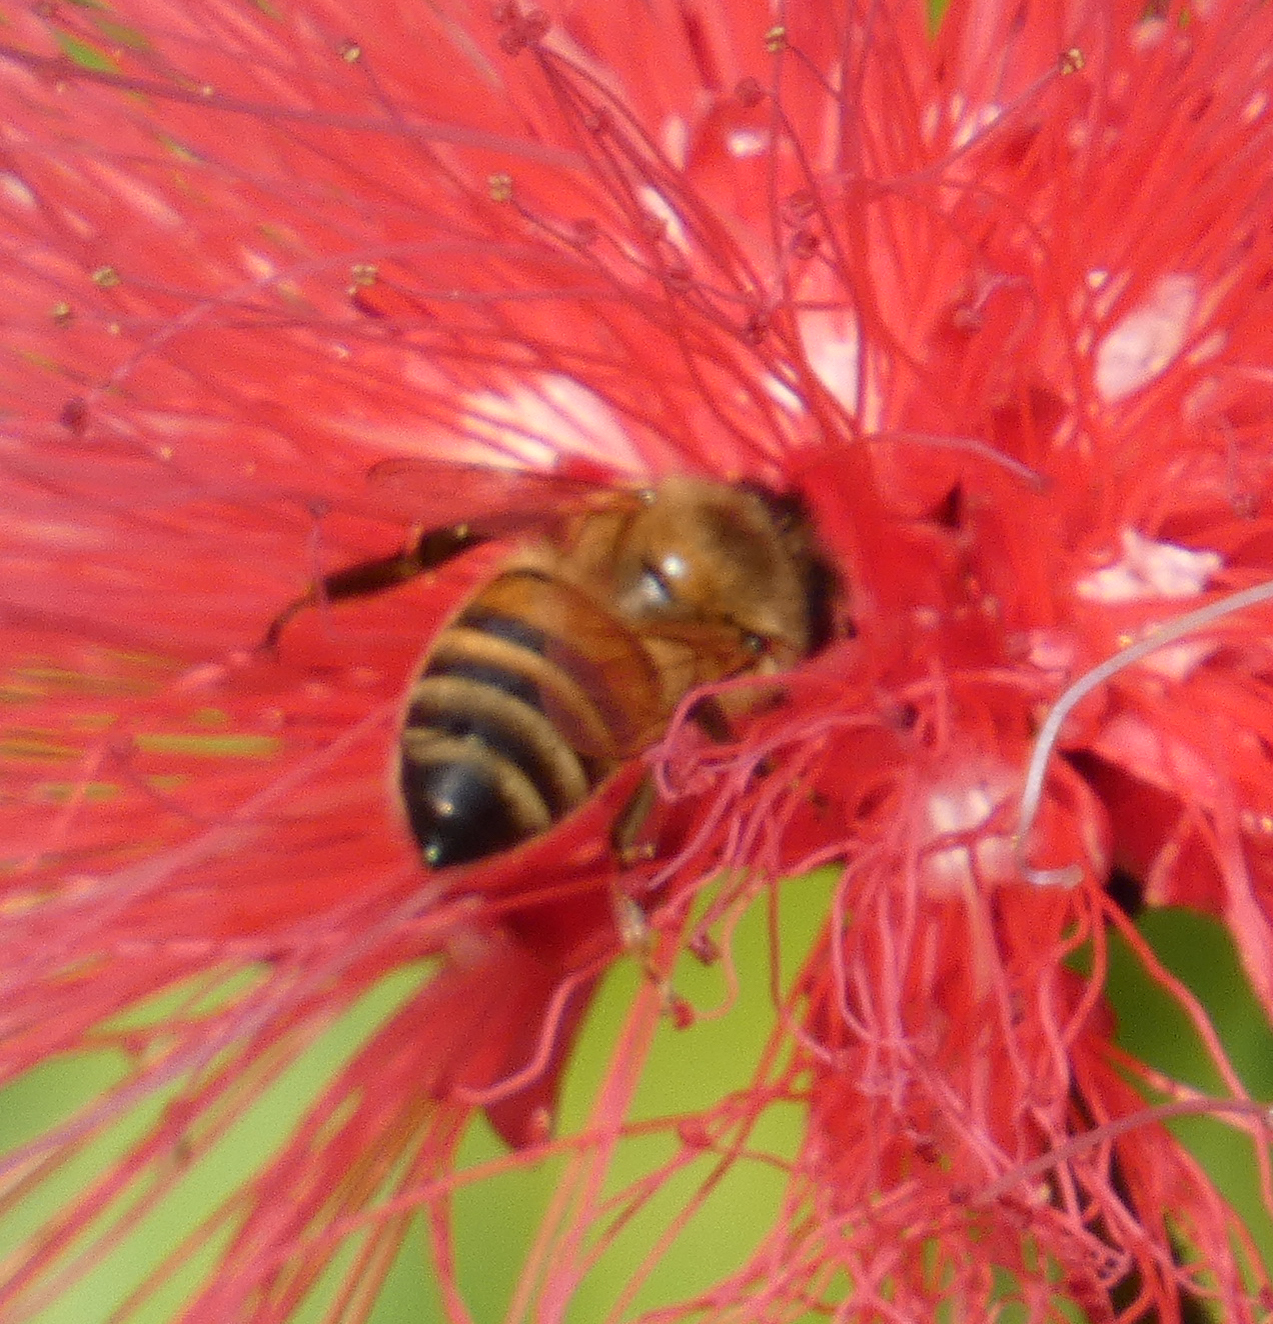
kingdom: Animalia
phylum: Arthropoda
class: Insecta
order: Hymenoptera
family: Apidae
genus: Apis
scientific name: Apis mellifera
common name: Honey bee
